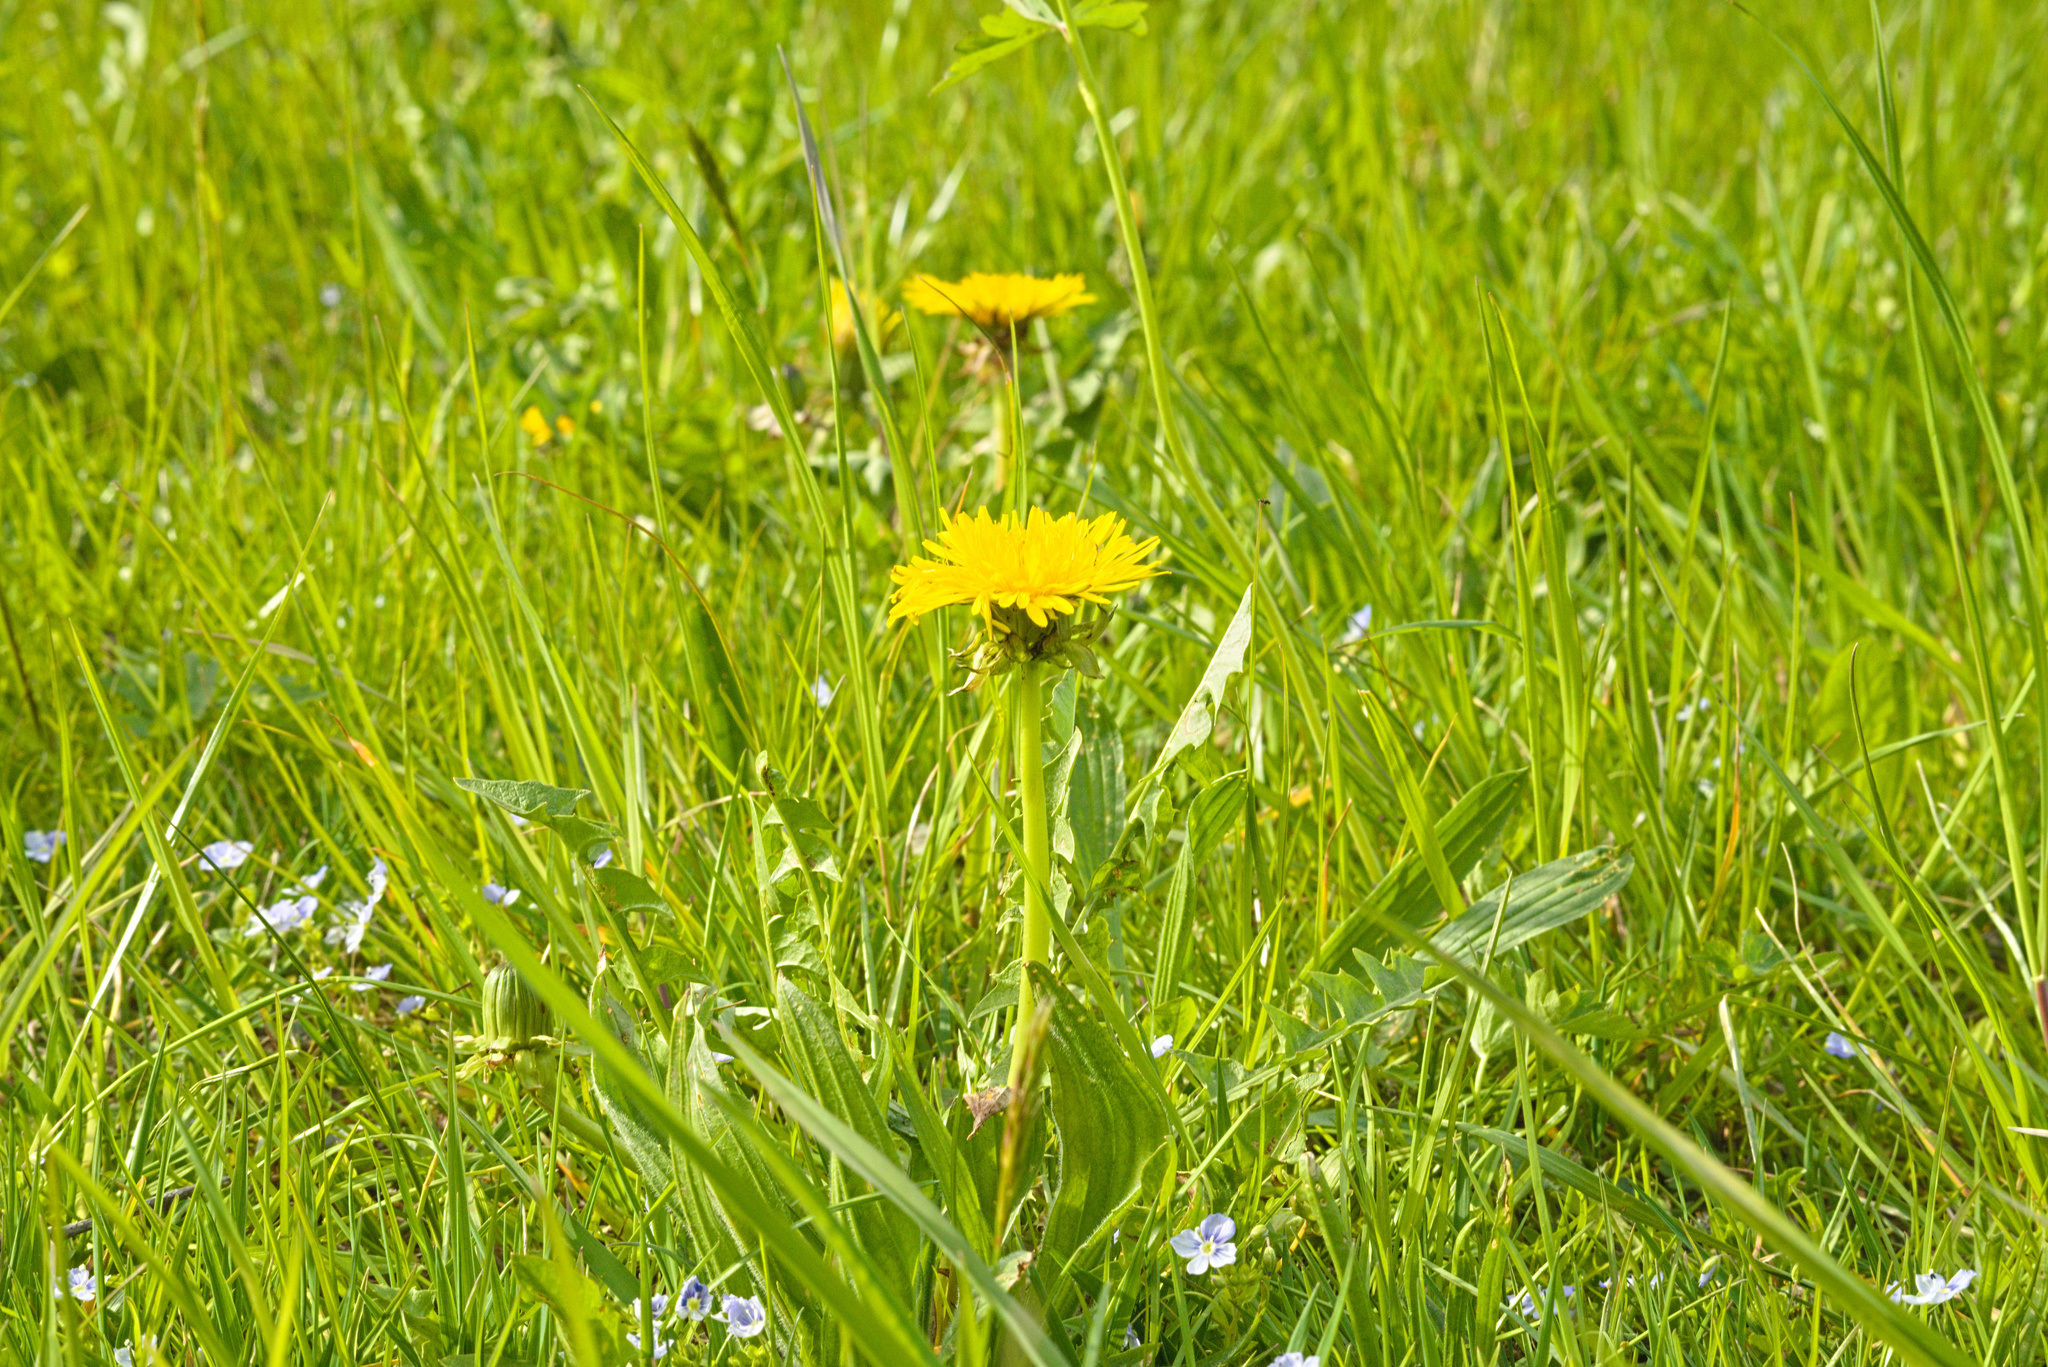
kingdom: Plantae
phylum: Tracheophyta
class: Magnoliopsida
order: Asterales
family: Asteraceae
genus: Taraxacum
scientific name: Taraxacum officinale
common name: Common dandelion
